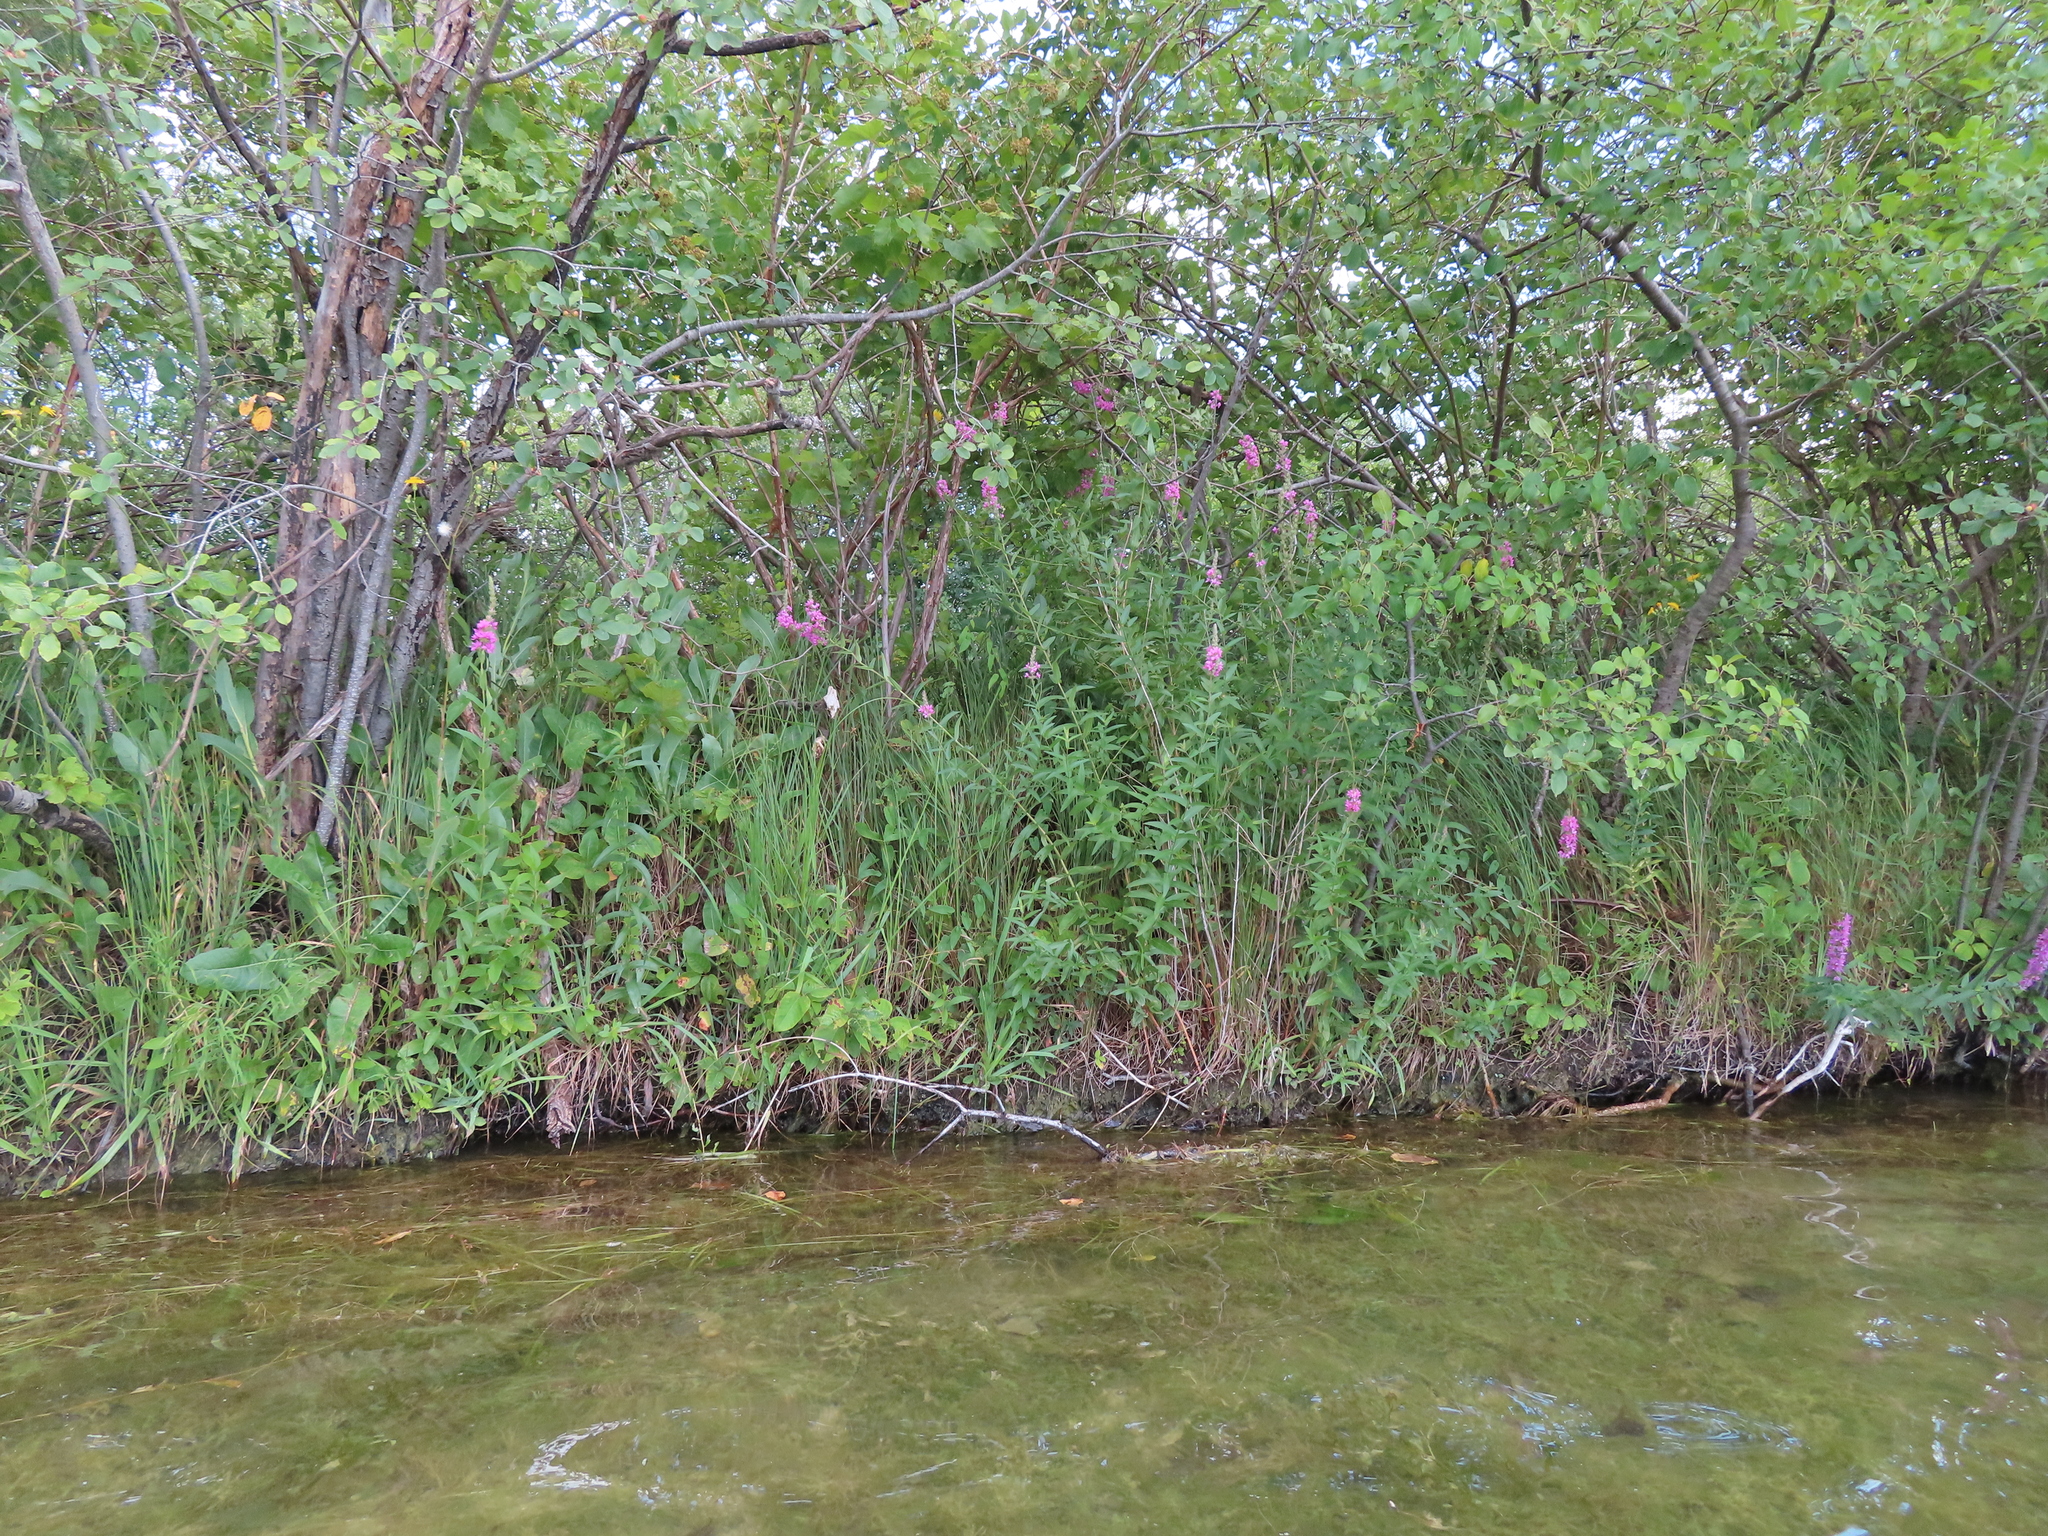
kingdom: Plantae
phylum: Tracheophyta
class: Magnoliopsida
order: Myrtales
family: Lythraceae
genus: Lythrum
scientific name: Lythrum salicaria
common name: Purple loosestrife
